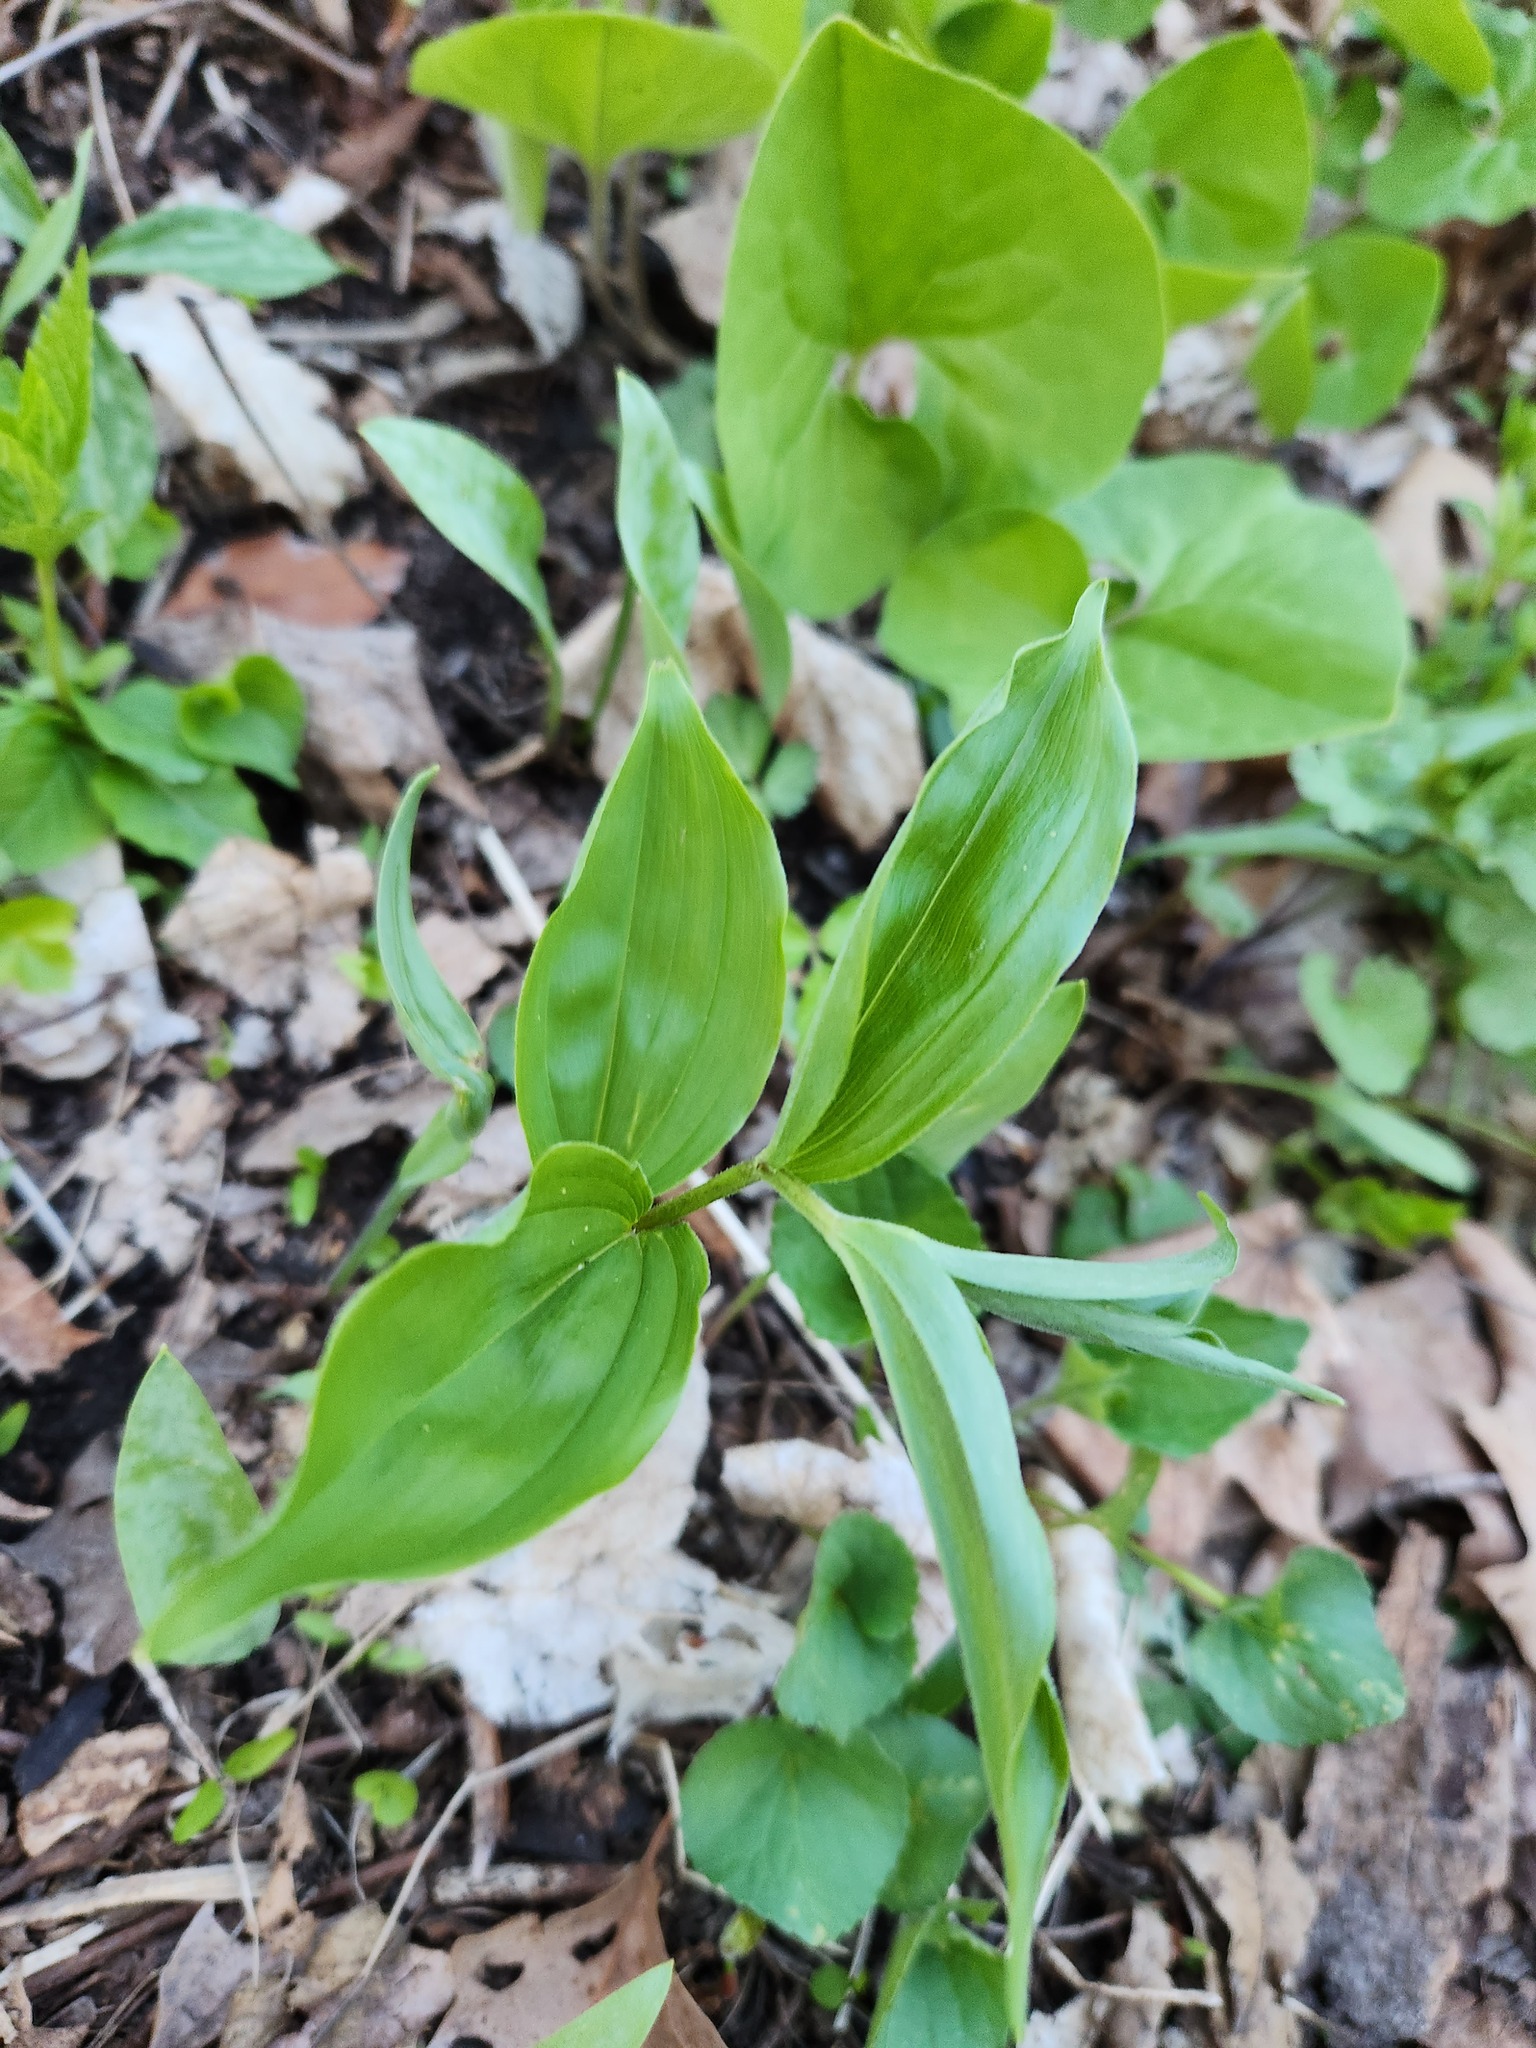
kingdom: Plantae
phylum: Tracheophyta
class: Liliopsida
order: Asparagales
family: Asparagaceae
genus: Maianthemum
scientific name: Maianthemum racemosum
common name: False spikenard
